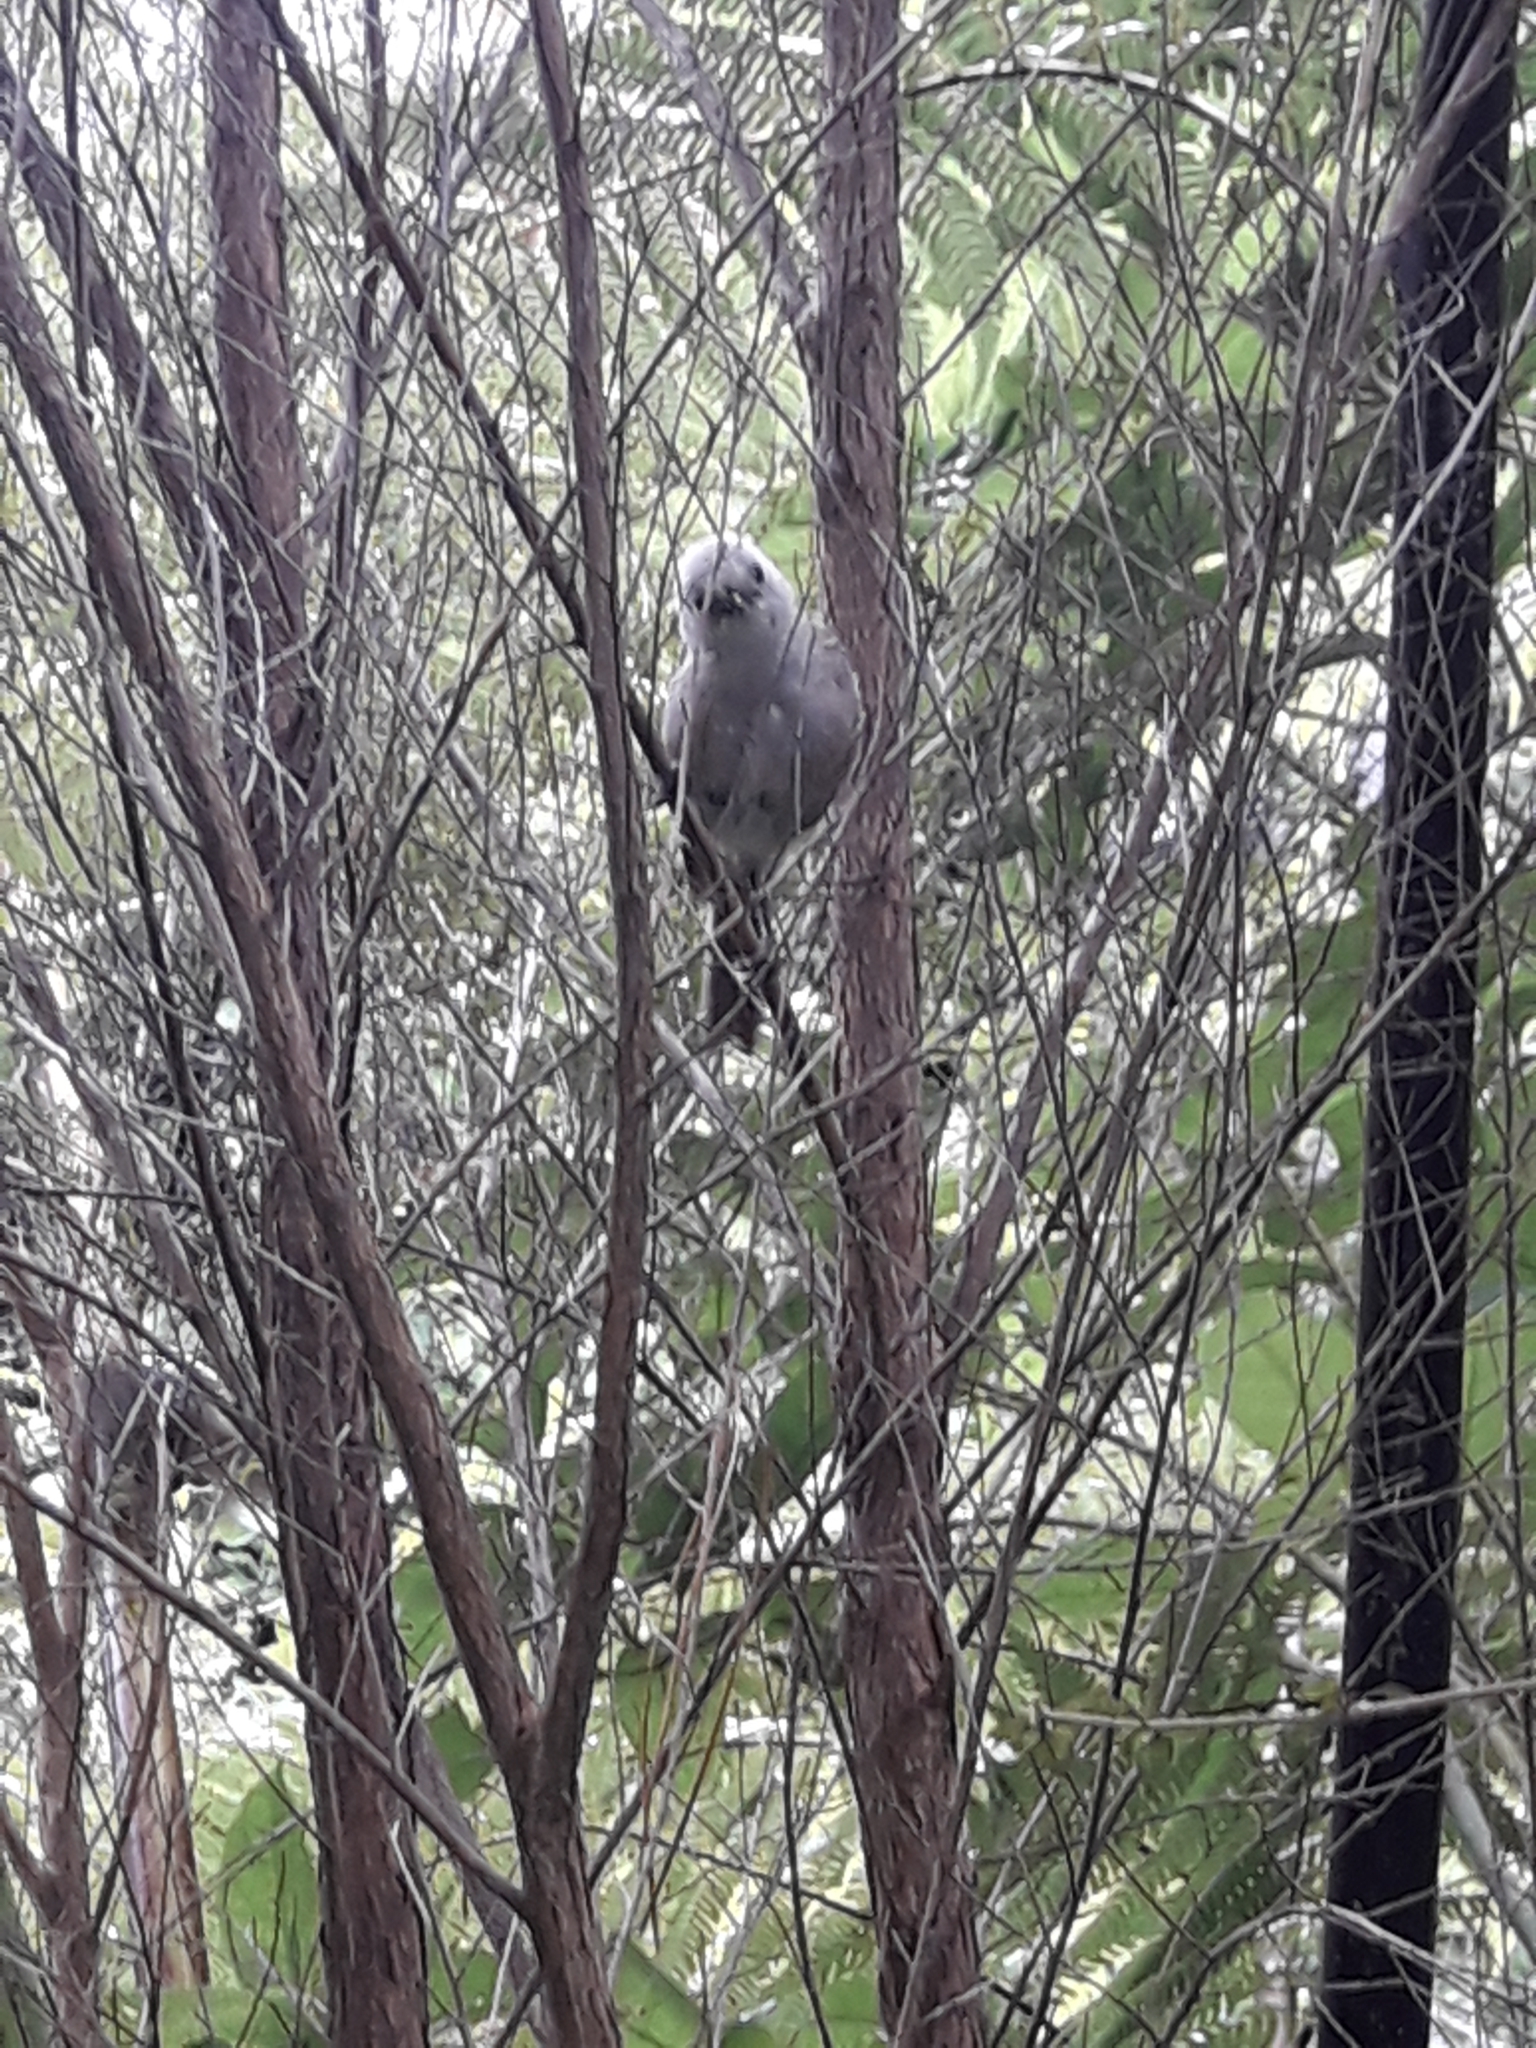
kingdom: Animalia
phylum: Chordata
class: Aves
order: Passeriformes
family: Acanthizidae
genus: Mohoua
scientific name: Mohoua albicilla
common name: Whitehead
